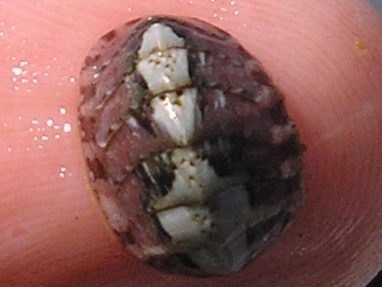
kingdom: Animalia
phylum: Mollusca
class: Polyplacophora
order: Chitonida
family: Tonicellidae
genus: Lepidochitona
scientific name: Lepidochitona cinerea
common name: Cinereous chiton
